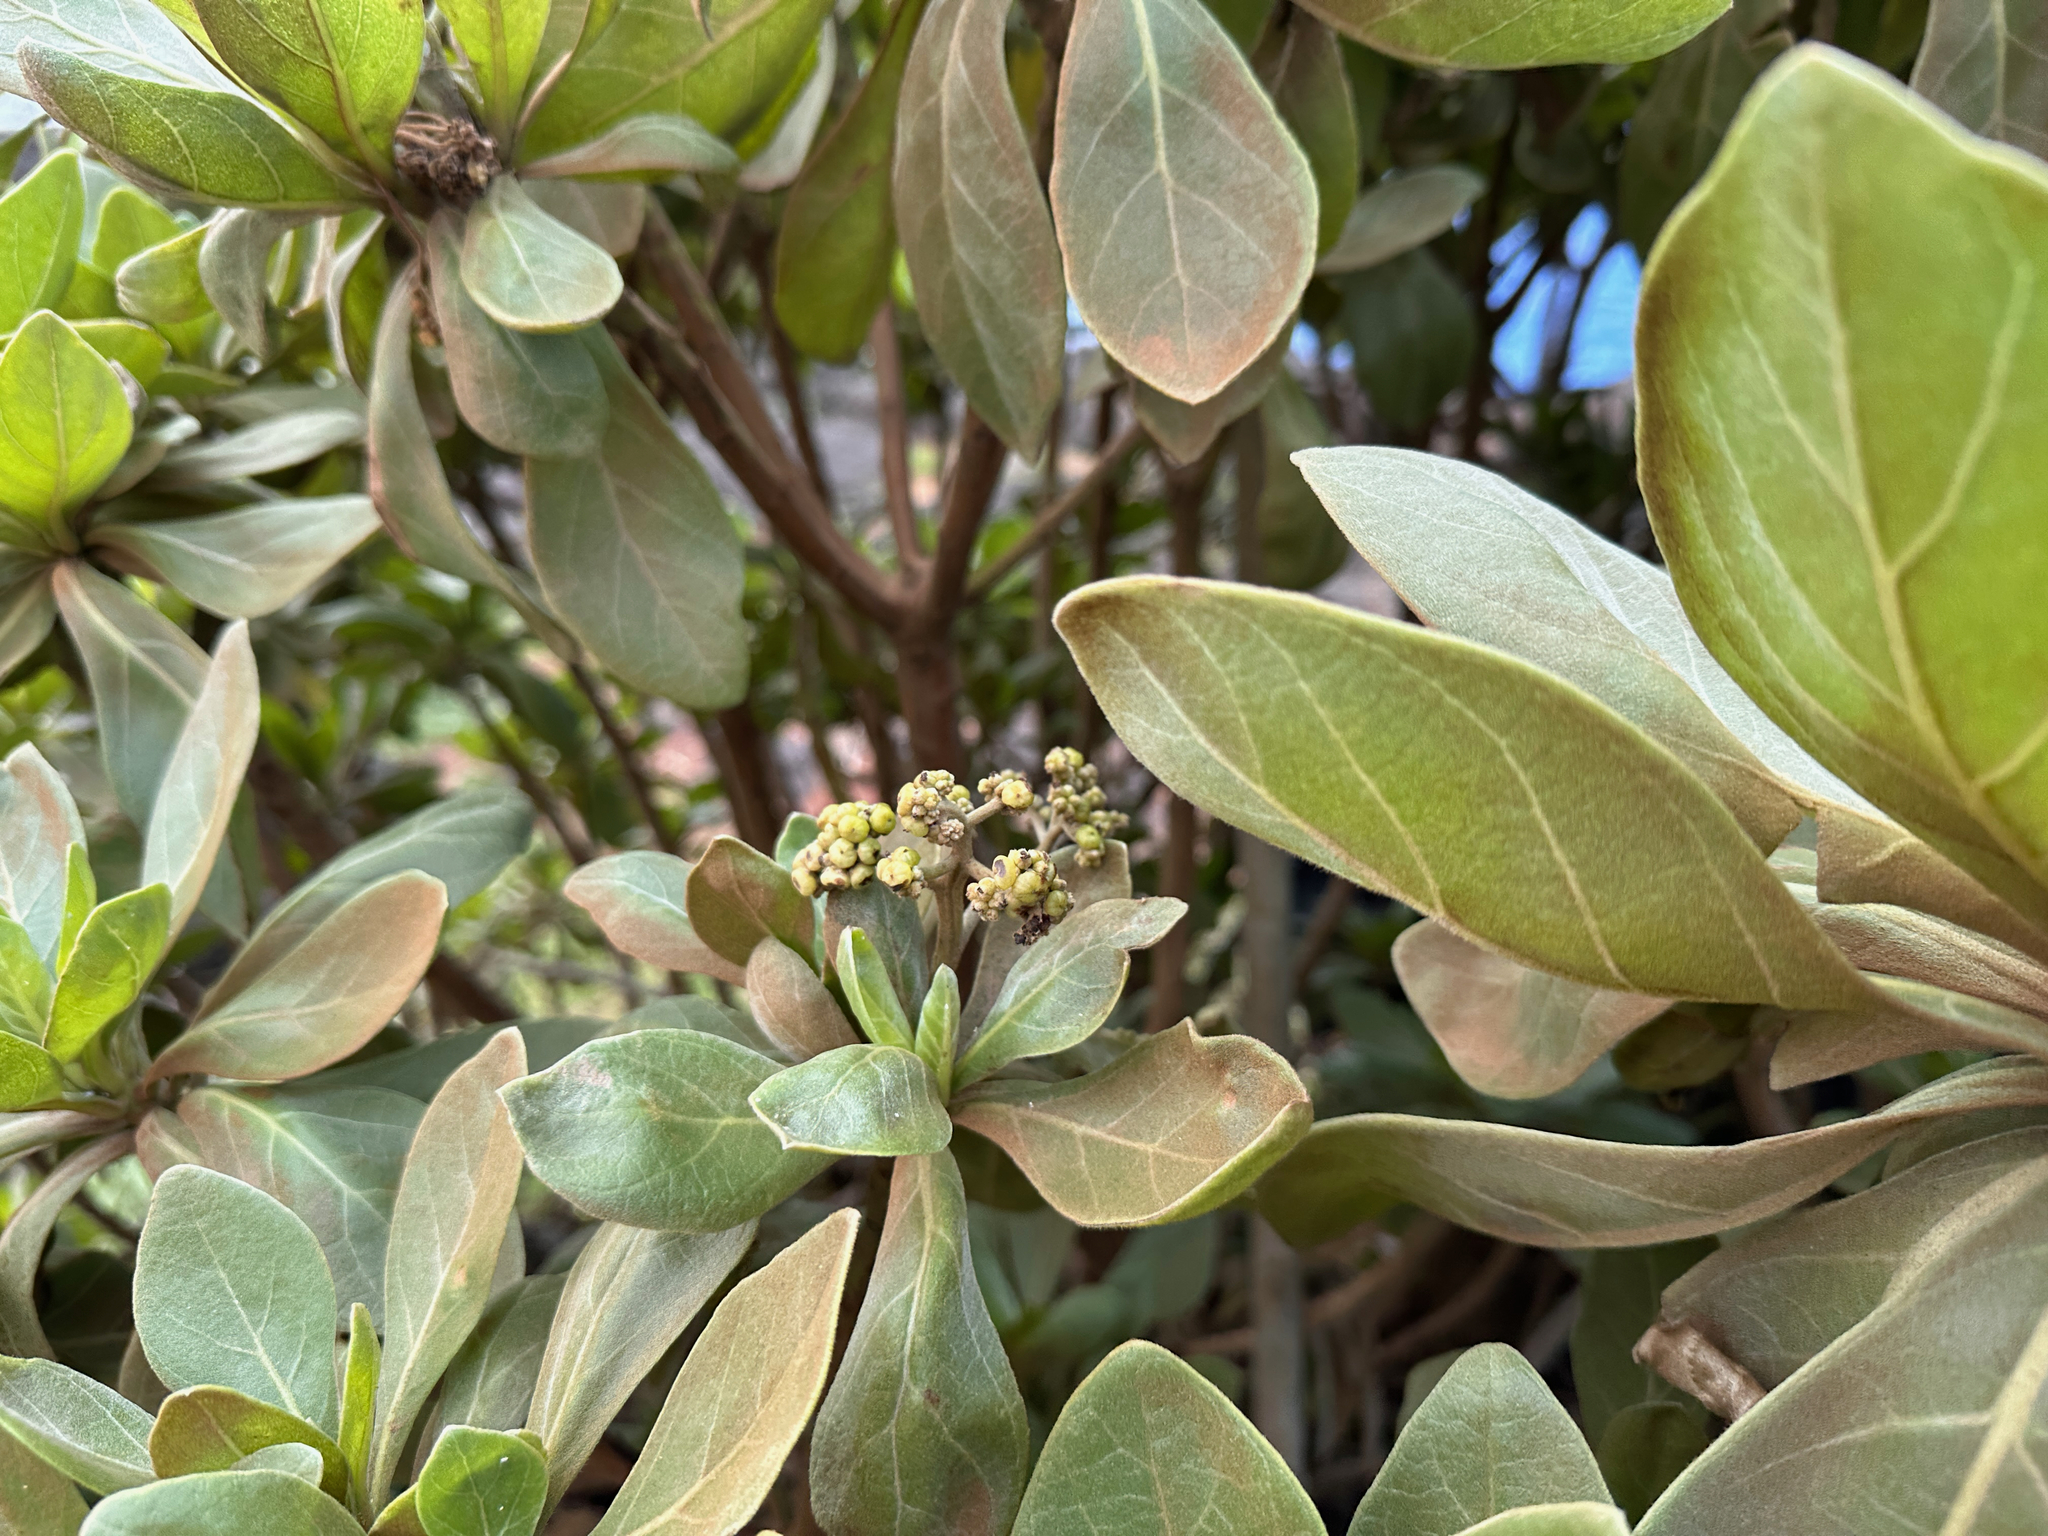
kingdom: Plantae
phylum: Tracheophyta
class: Magnoliopsida
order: Boraginales
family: Heliotropiaceae
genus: Heliotropium
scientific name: Heliotropium velutinum
